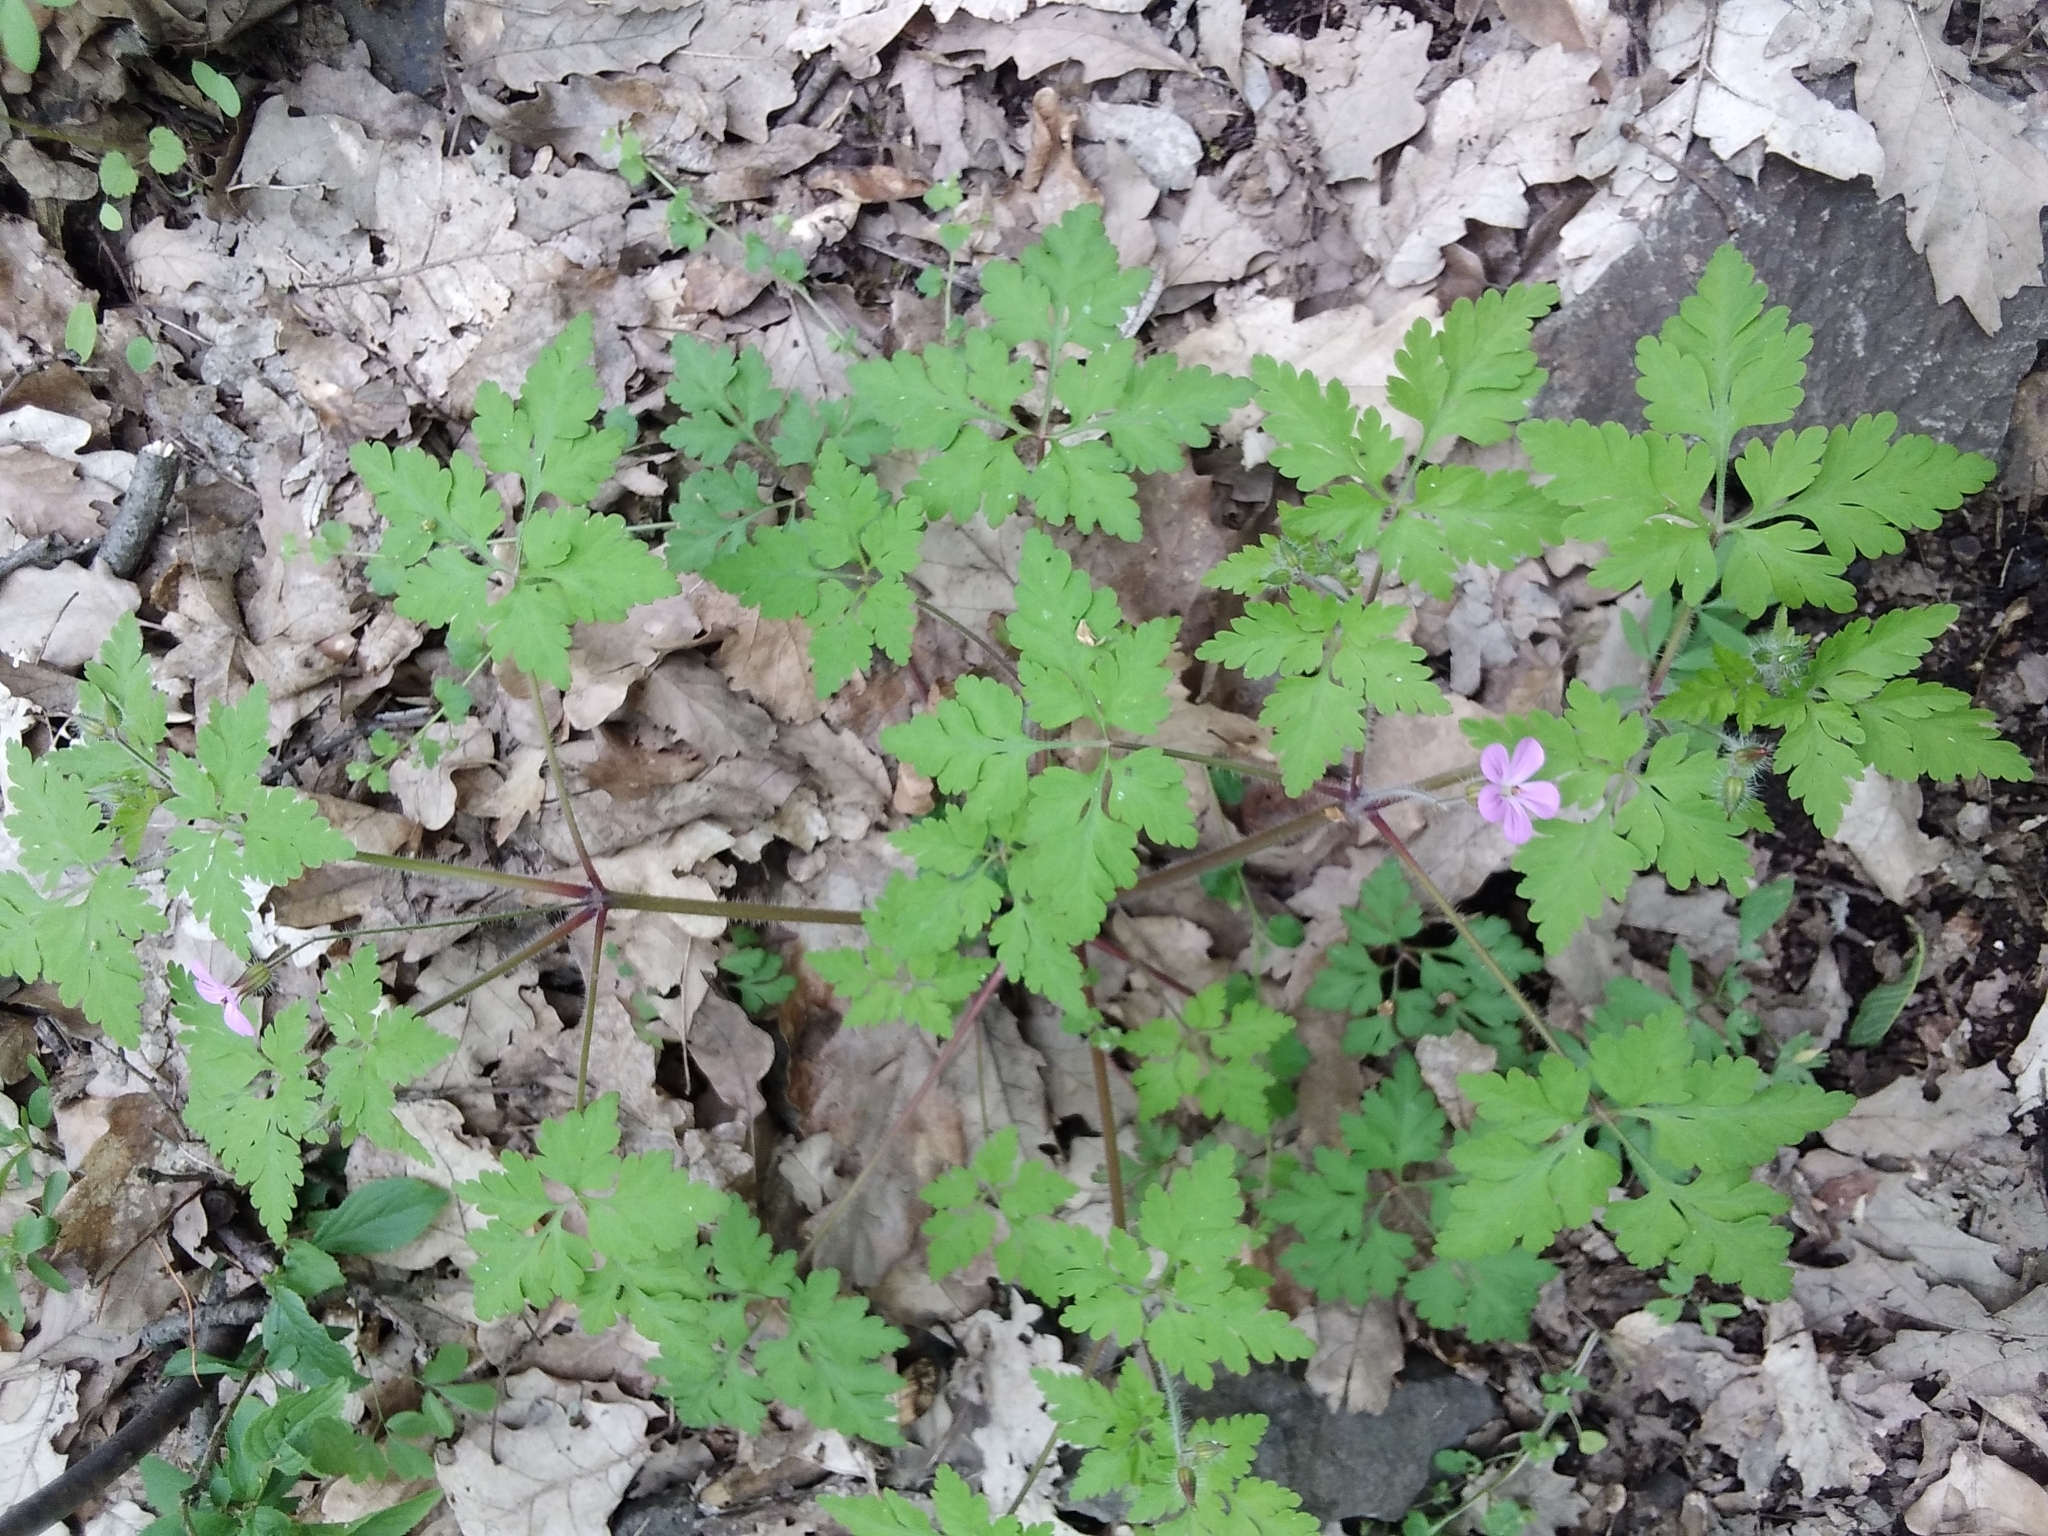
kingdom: Plantae
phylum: Tracheophyta
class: Magnoliopsida
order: Geraniales
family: Geraniaceae
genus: Geranium
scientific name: Geranium robertianum
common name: Herb-robert
